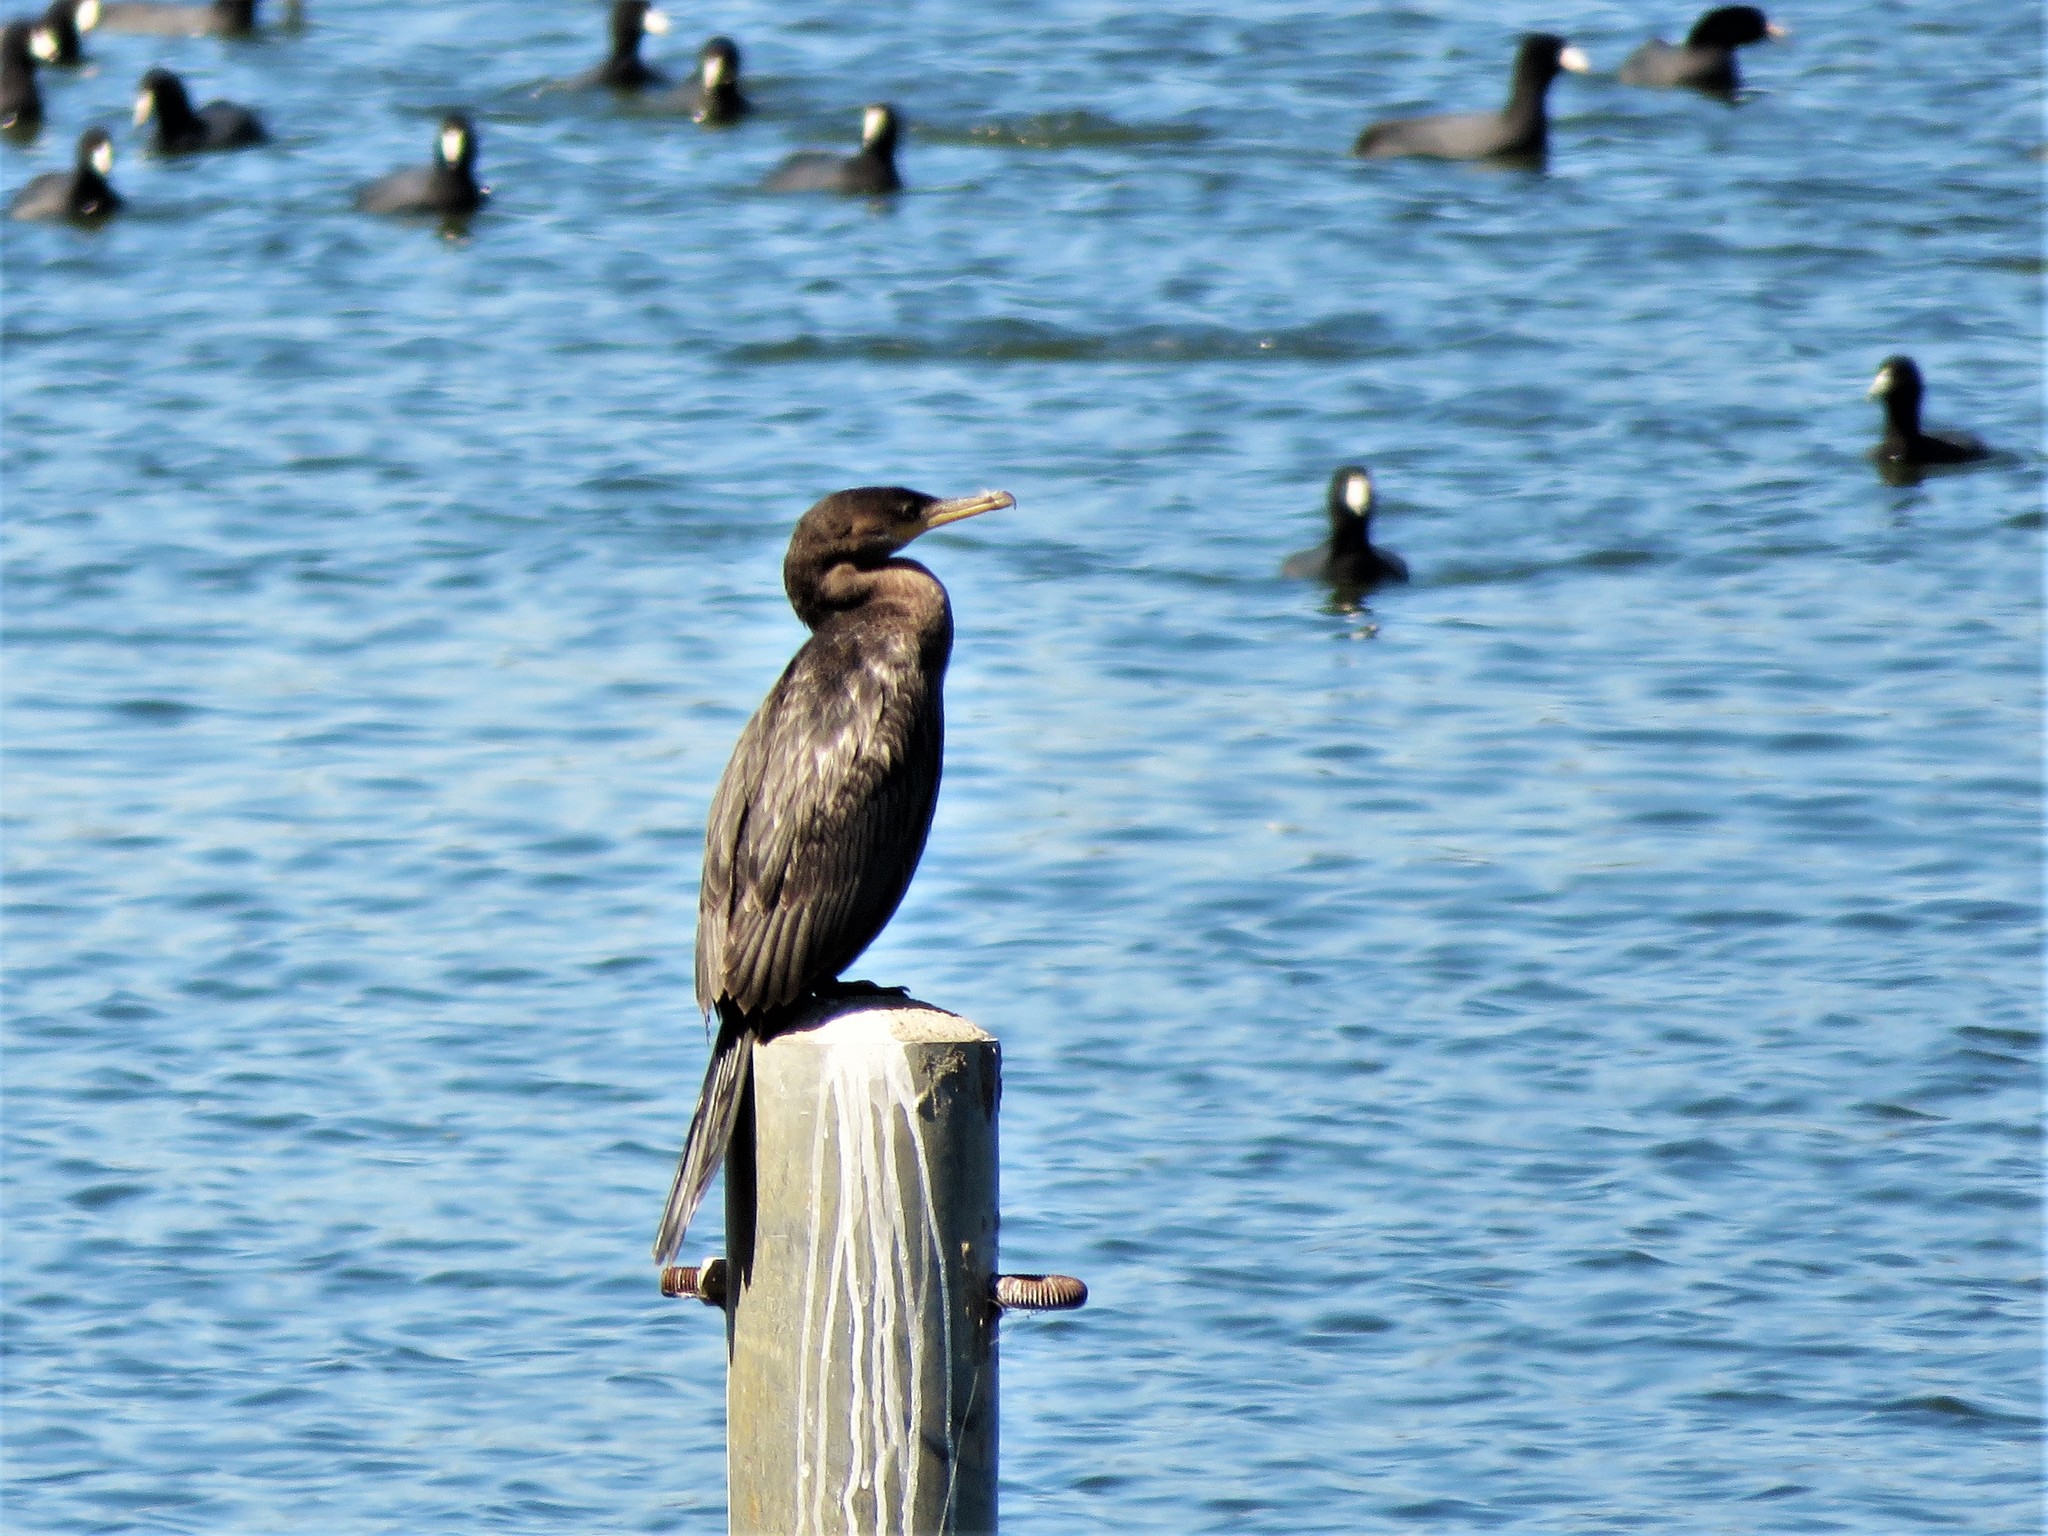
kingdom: Animalia
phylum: Chordata
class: Aves
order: Suliformes
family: Phalacrocoracidae
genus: Phalacrocorax
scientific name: Phalacrocorax brasilianus
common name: Neotropic cormorant
